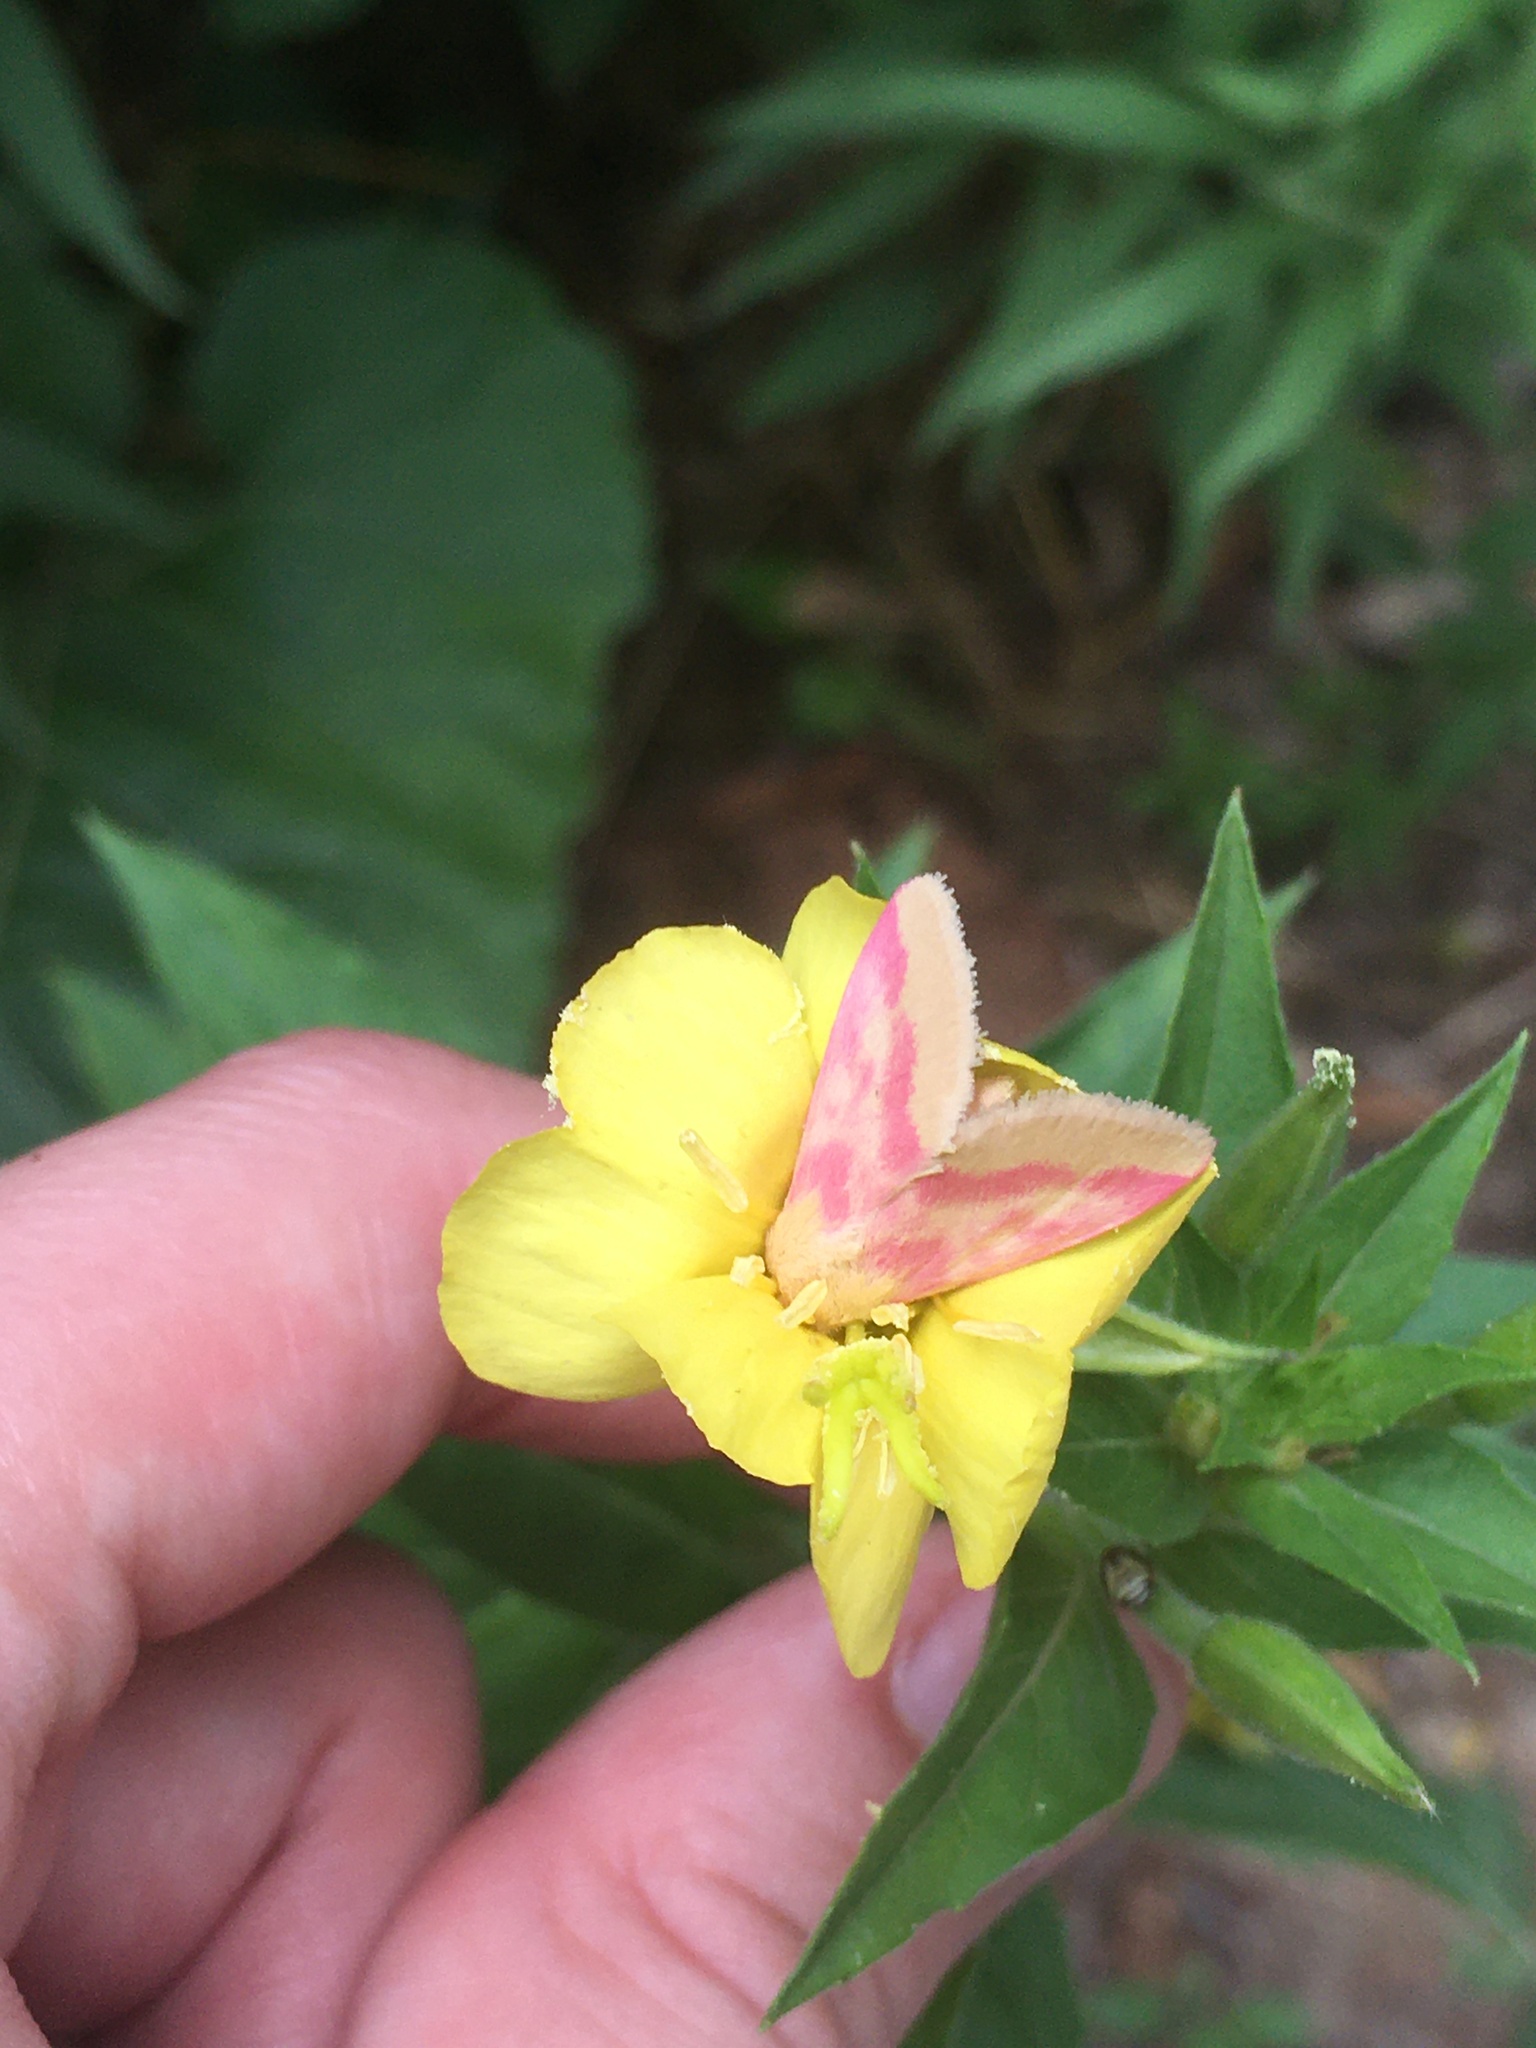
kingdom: Animalia
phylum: Arthropoda
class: Insecta
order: Lepidoptera
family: Noctuidae
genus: Schinia
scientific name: Schinia florida
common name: Primrose moth
